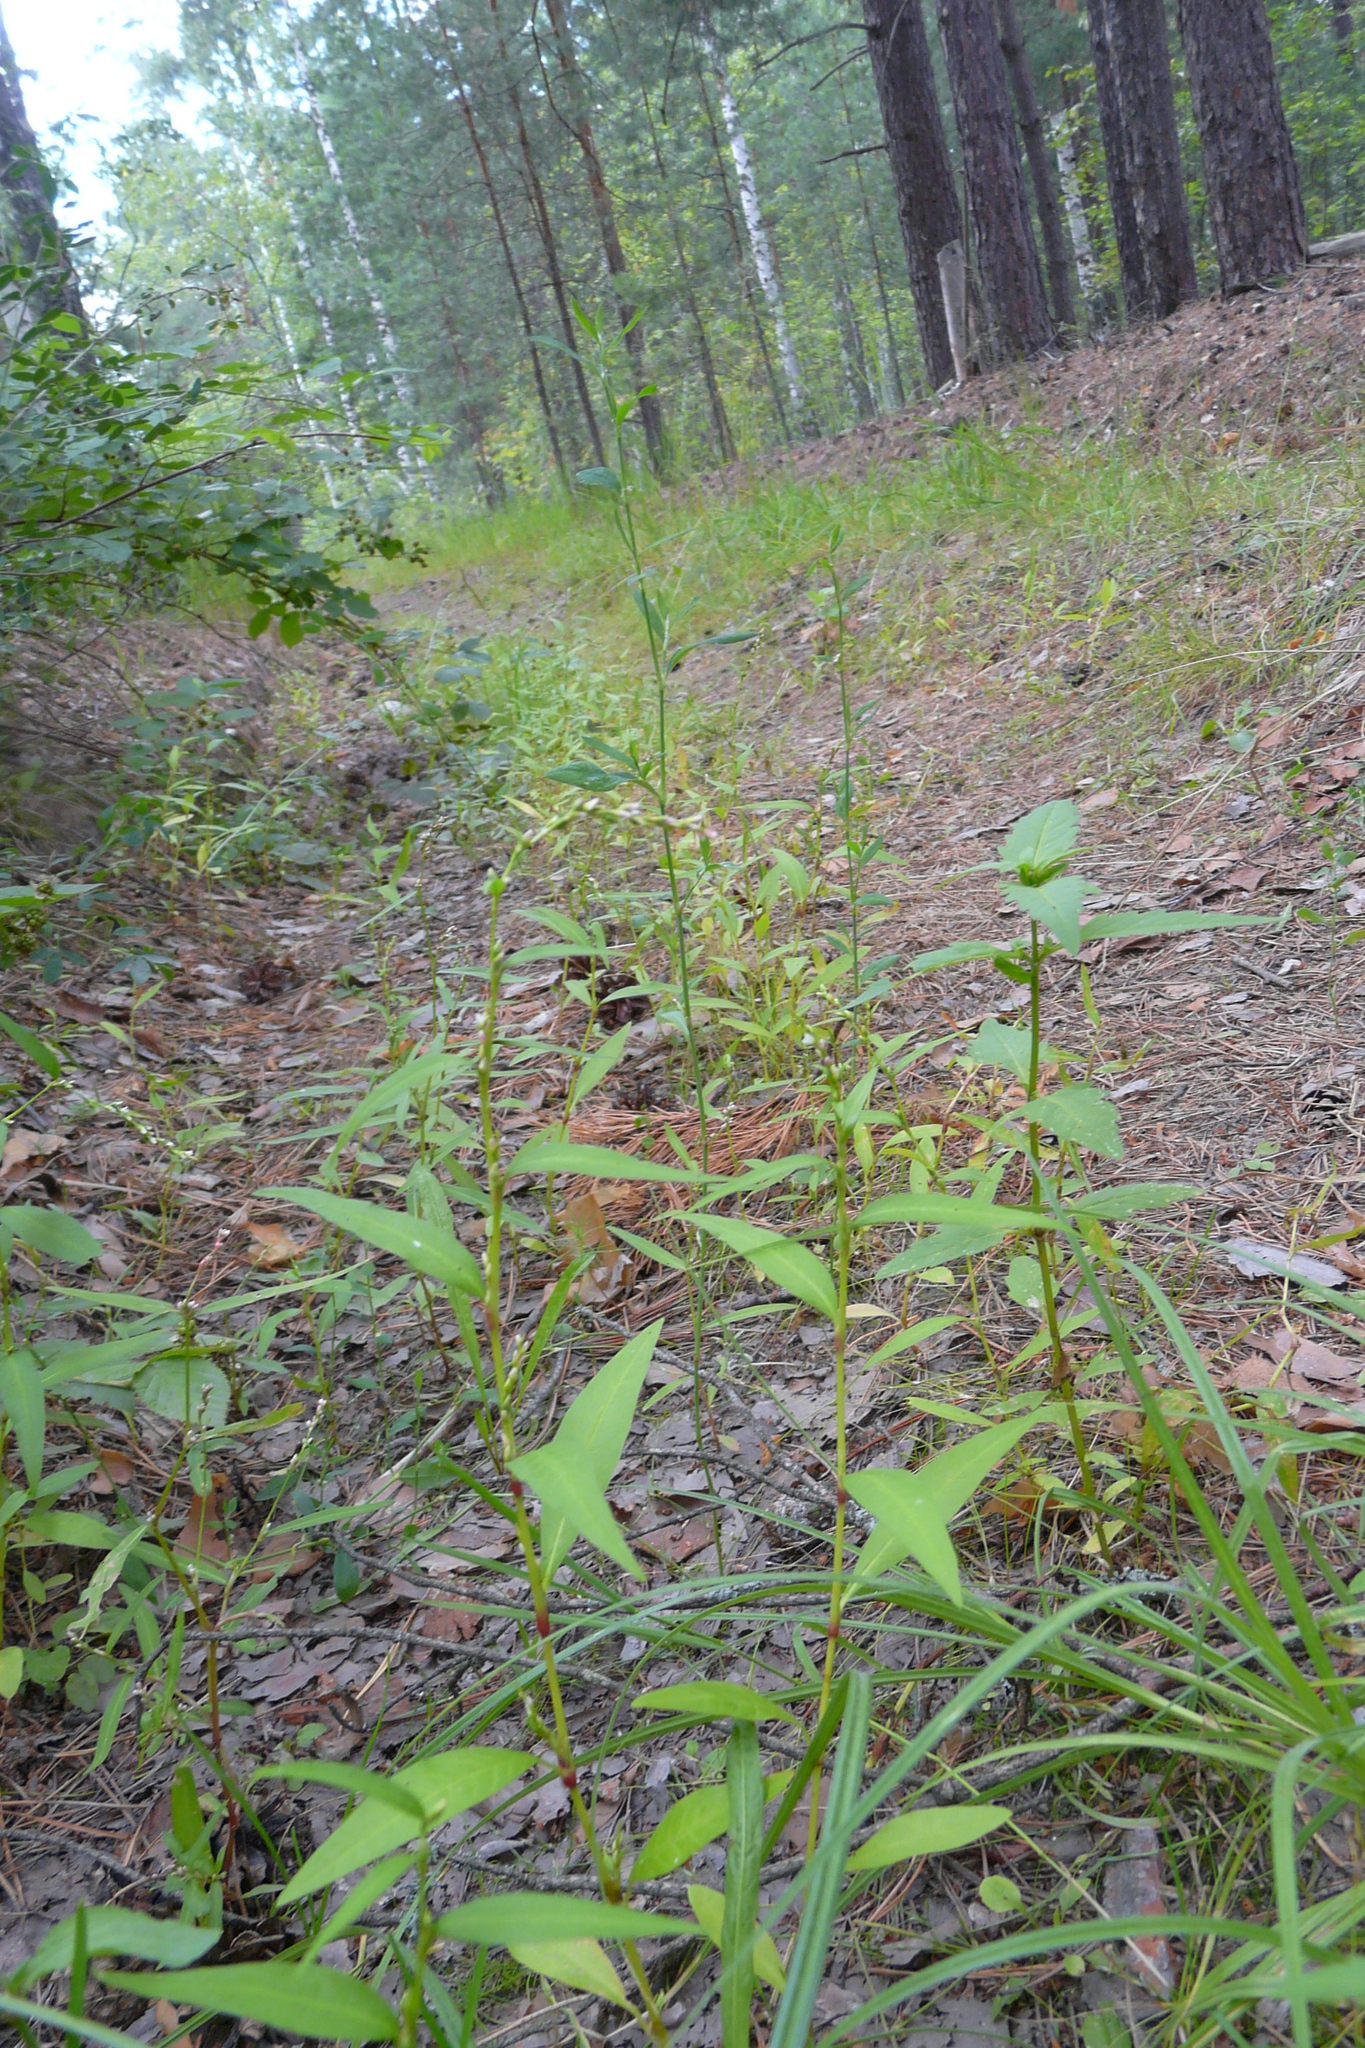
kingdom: Plantae
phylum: Tracheophyta
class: Magnoliopsida
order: Caryophyllales
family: Polygonaceae
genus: Persicaria
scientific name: Persicaria hydropiper
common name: Water-pepper
